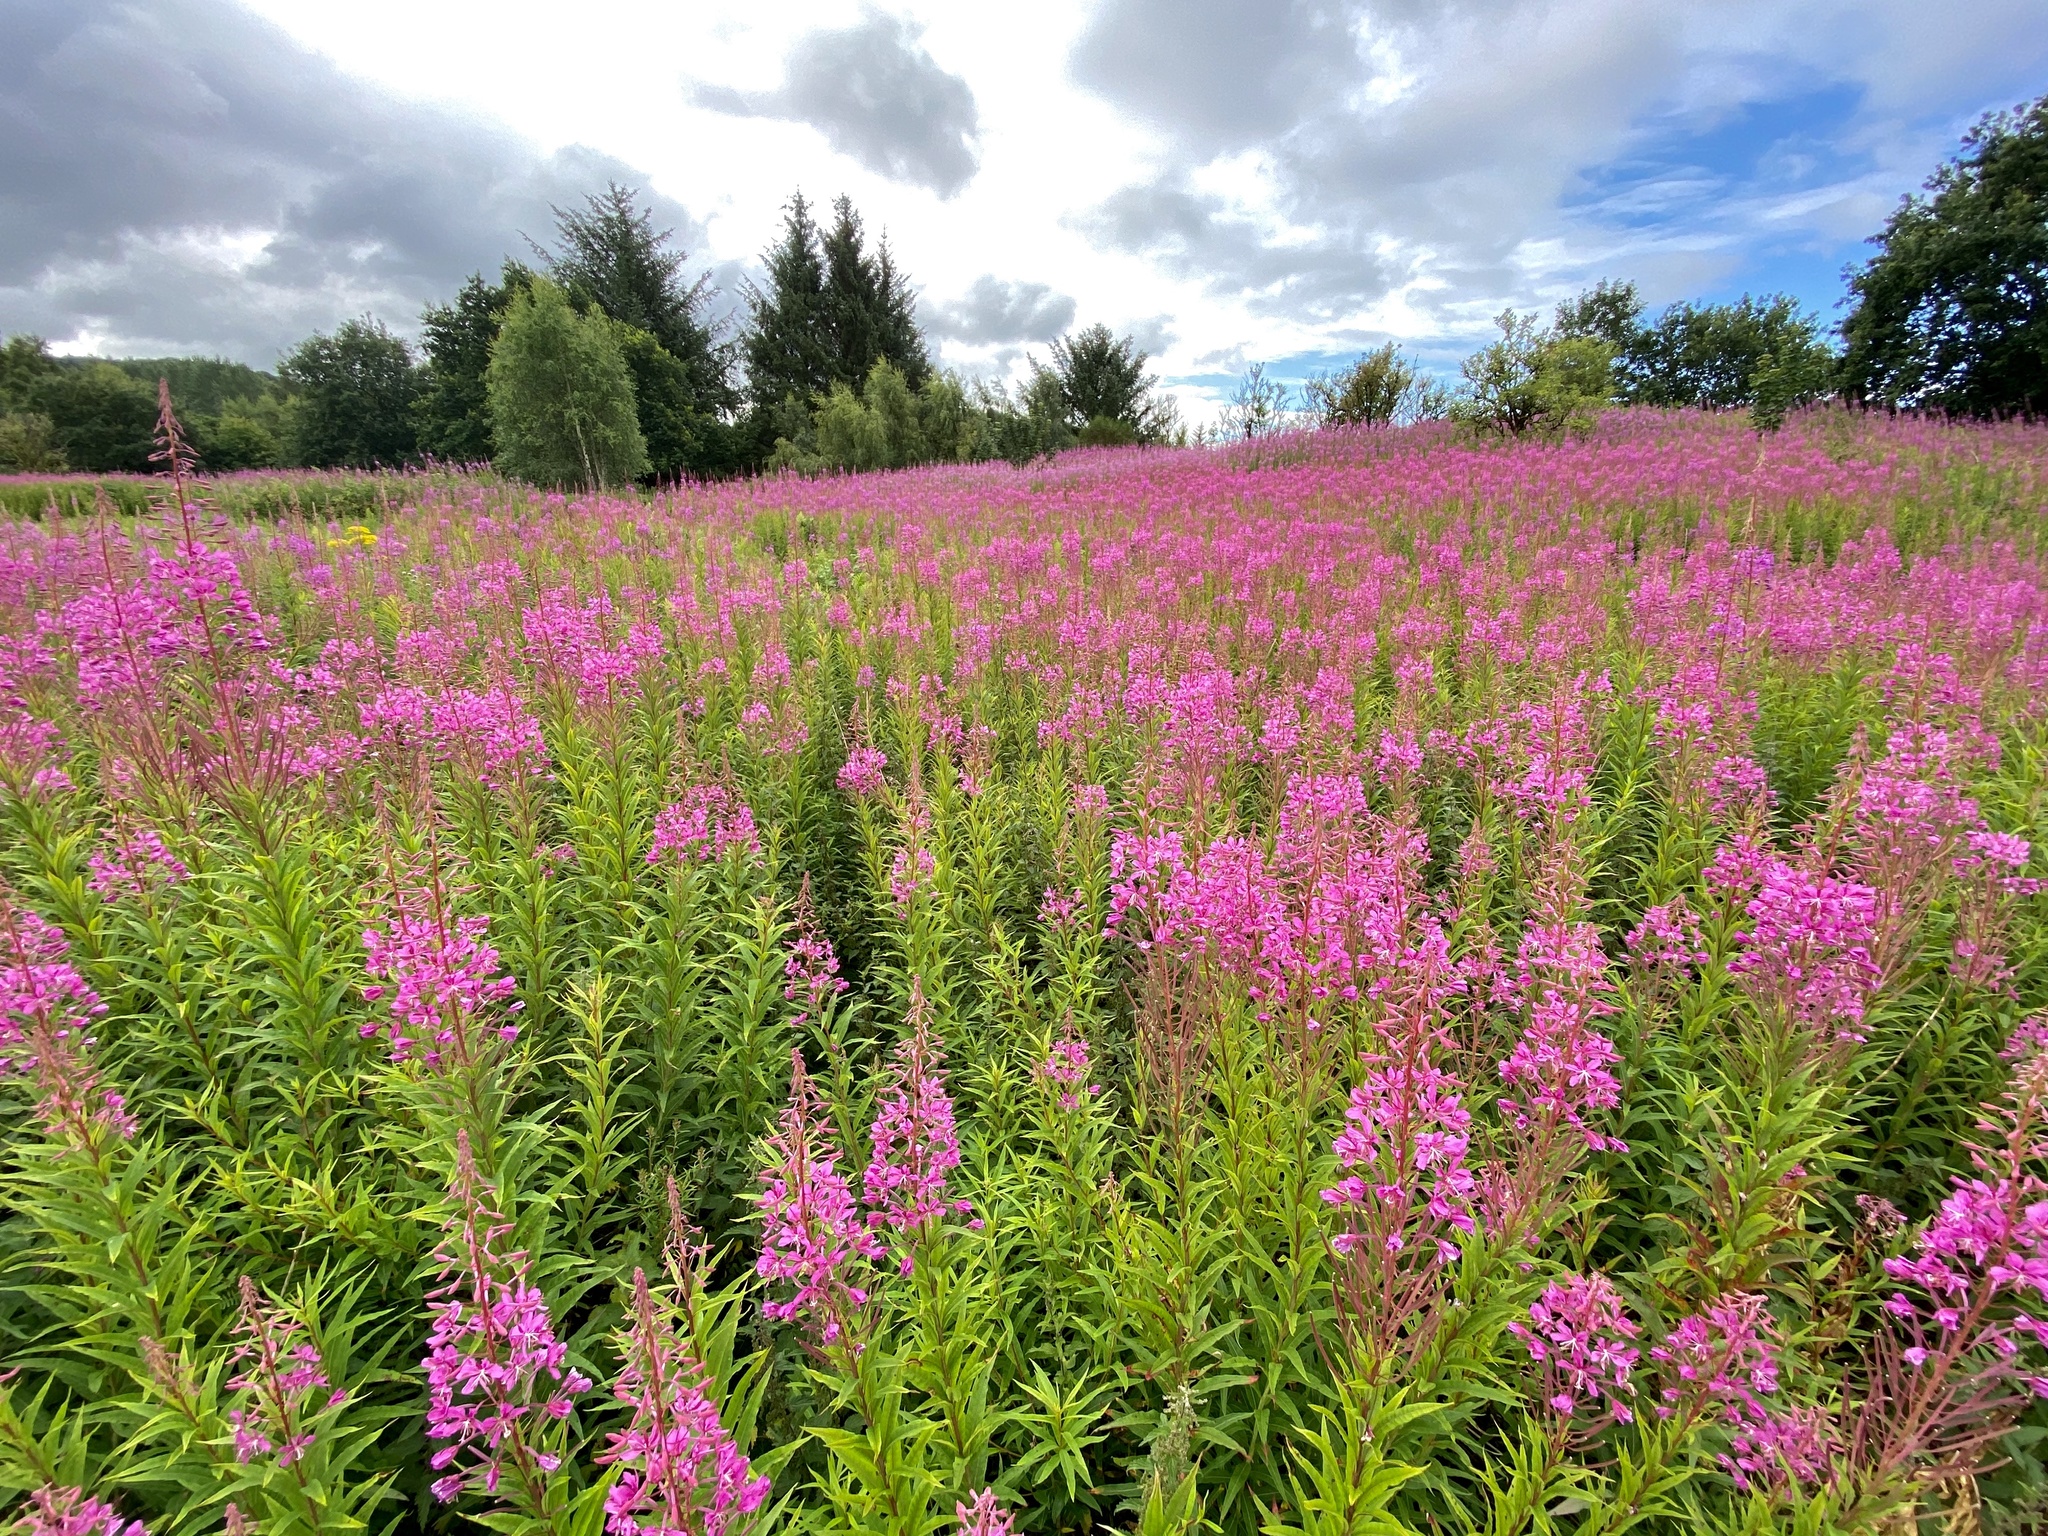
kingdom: Plantae
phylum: Tracheophyta
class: Magnoliopsida
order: Myrtales
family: Onagraceae
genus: Chamaenerion
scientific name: Chamaenerion angustifolium
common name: Fireweed
